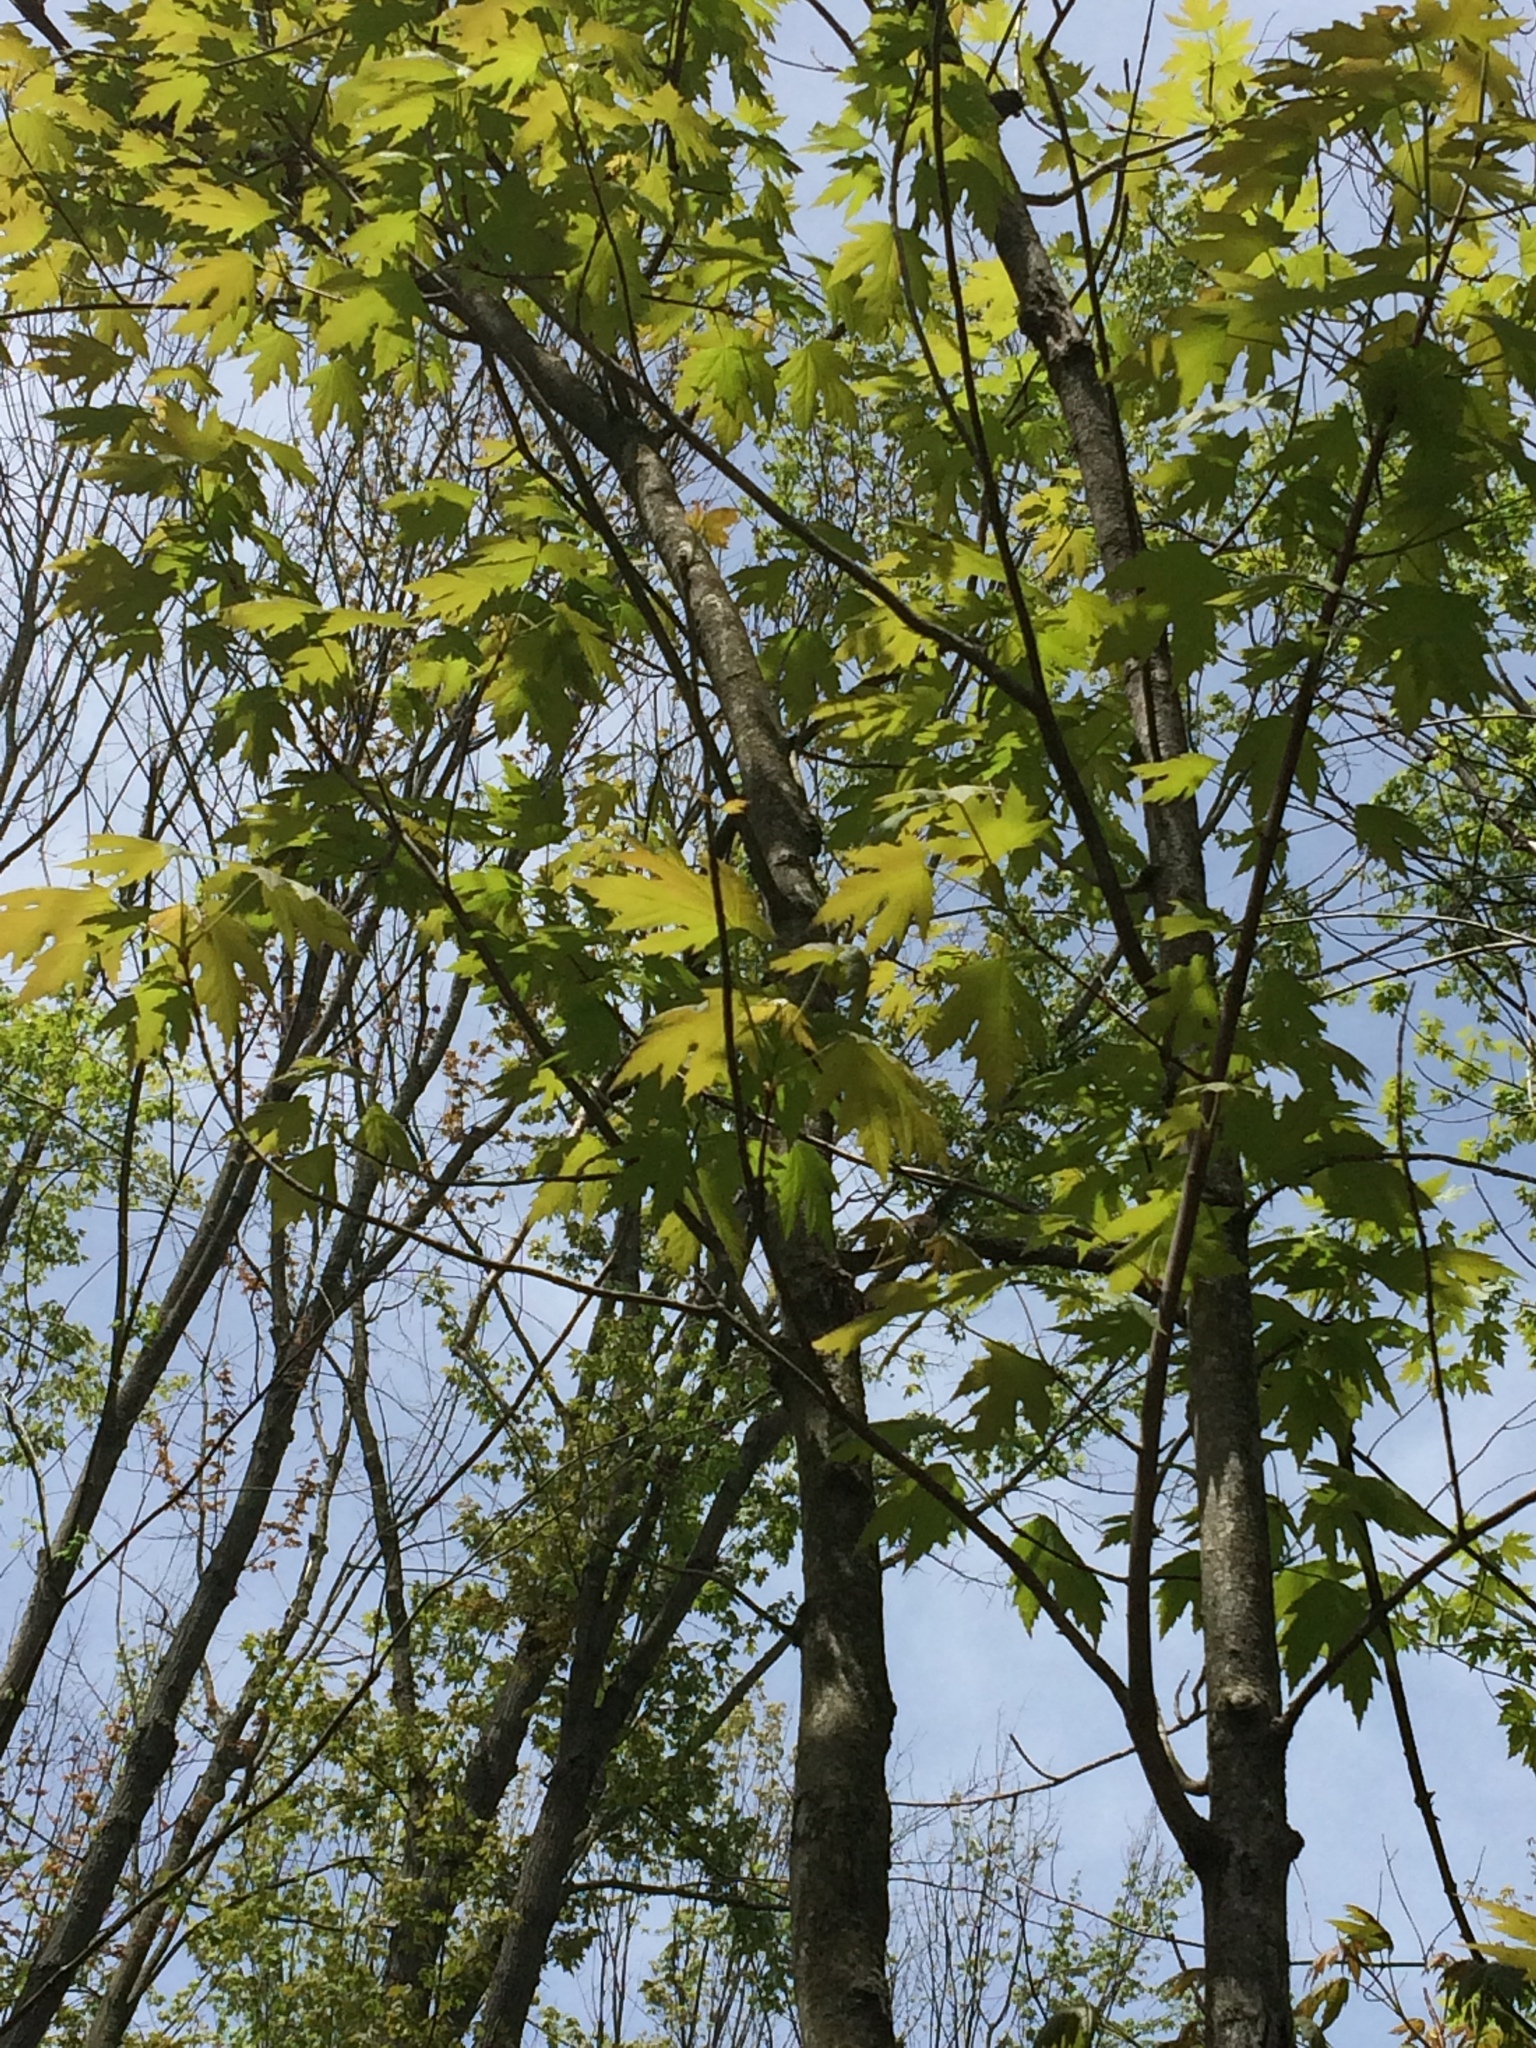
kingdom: Plantae
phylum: Tracheophyta
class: Magnoliopsida
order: Sapindales
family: Sapindaceae
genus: Acer
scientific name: Acer saccharinum
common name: Silver maple
